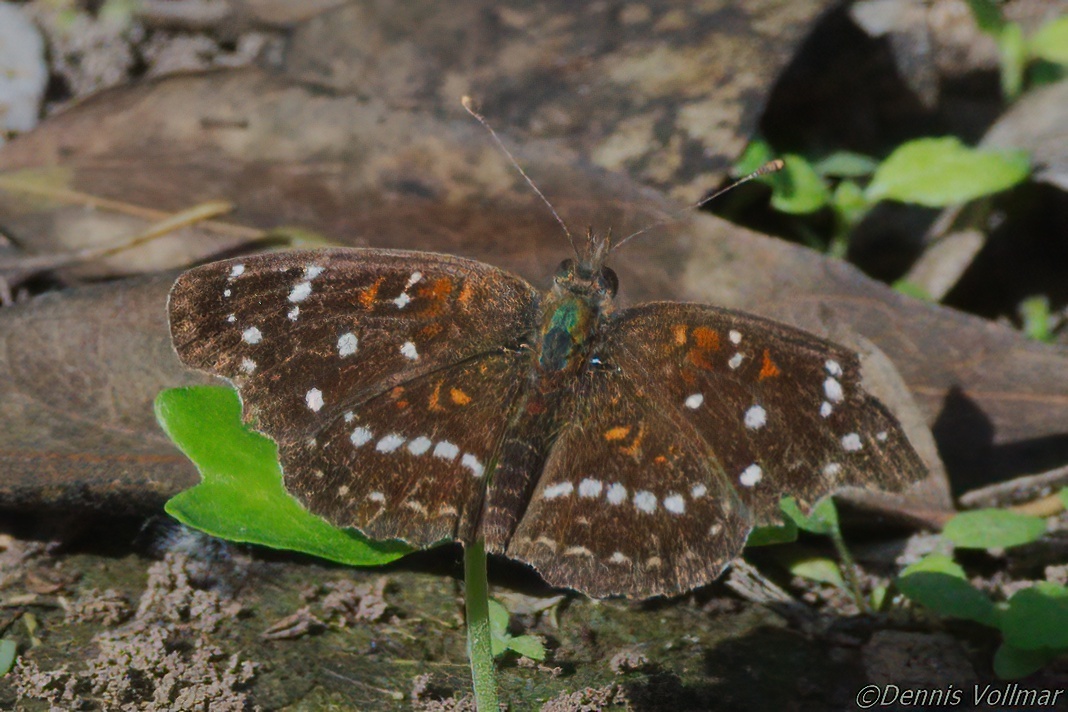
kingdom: Animalia
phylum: Arthropoda
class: Insecta
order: Lepidoptera
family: Nymphalidae
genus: Anthanassa
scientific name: Anthanassa texana
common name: Texan crescent
